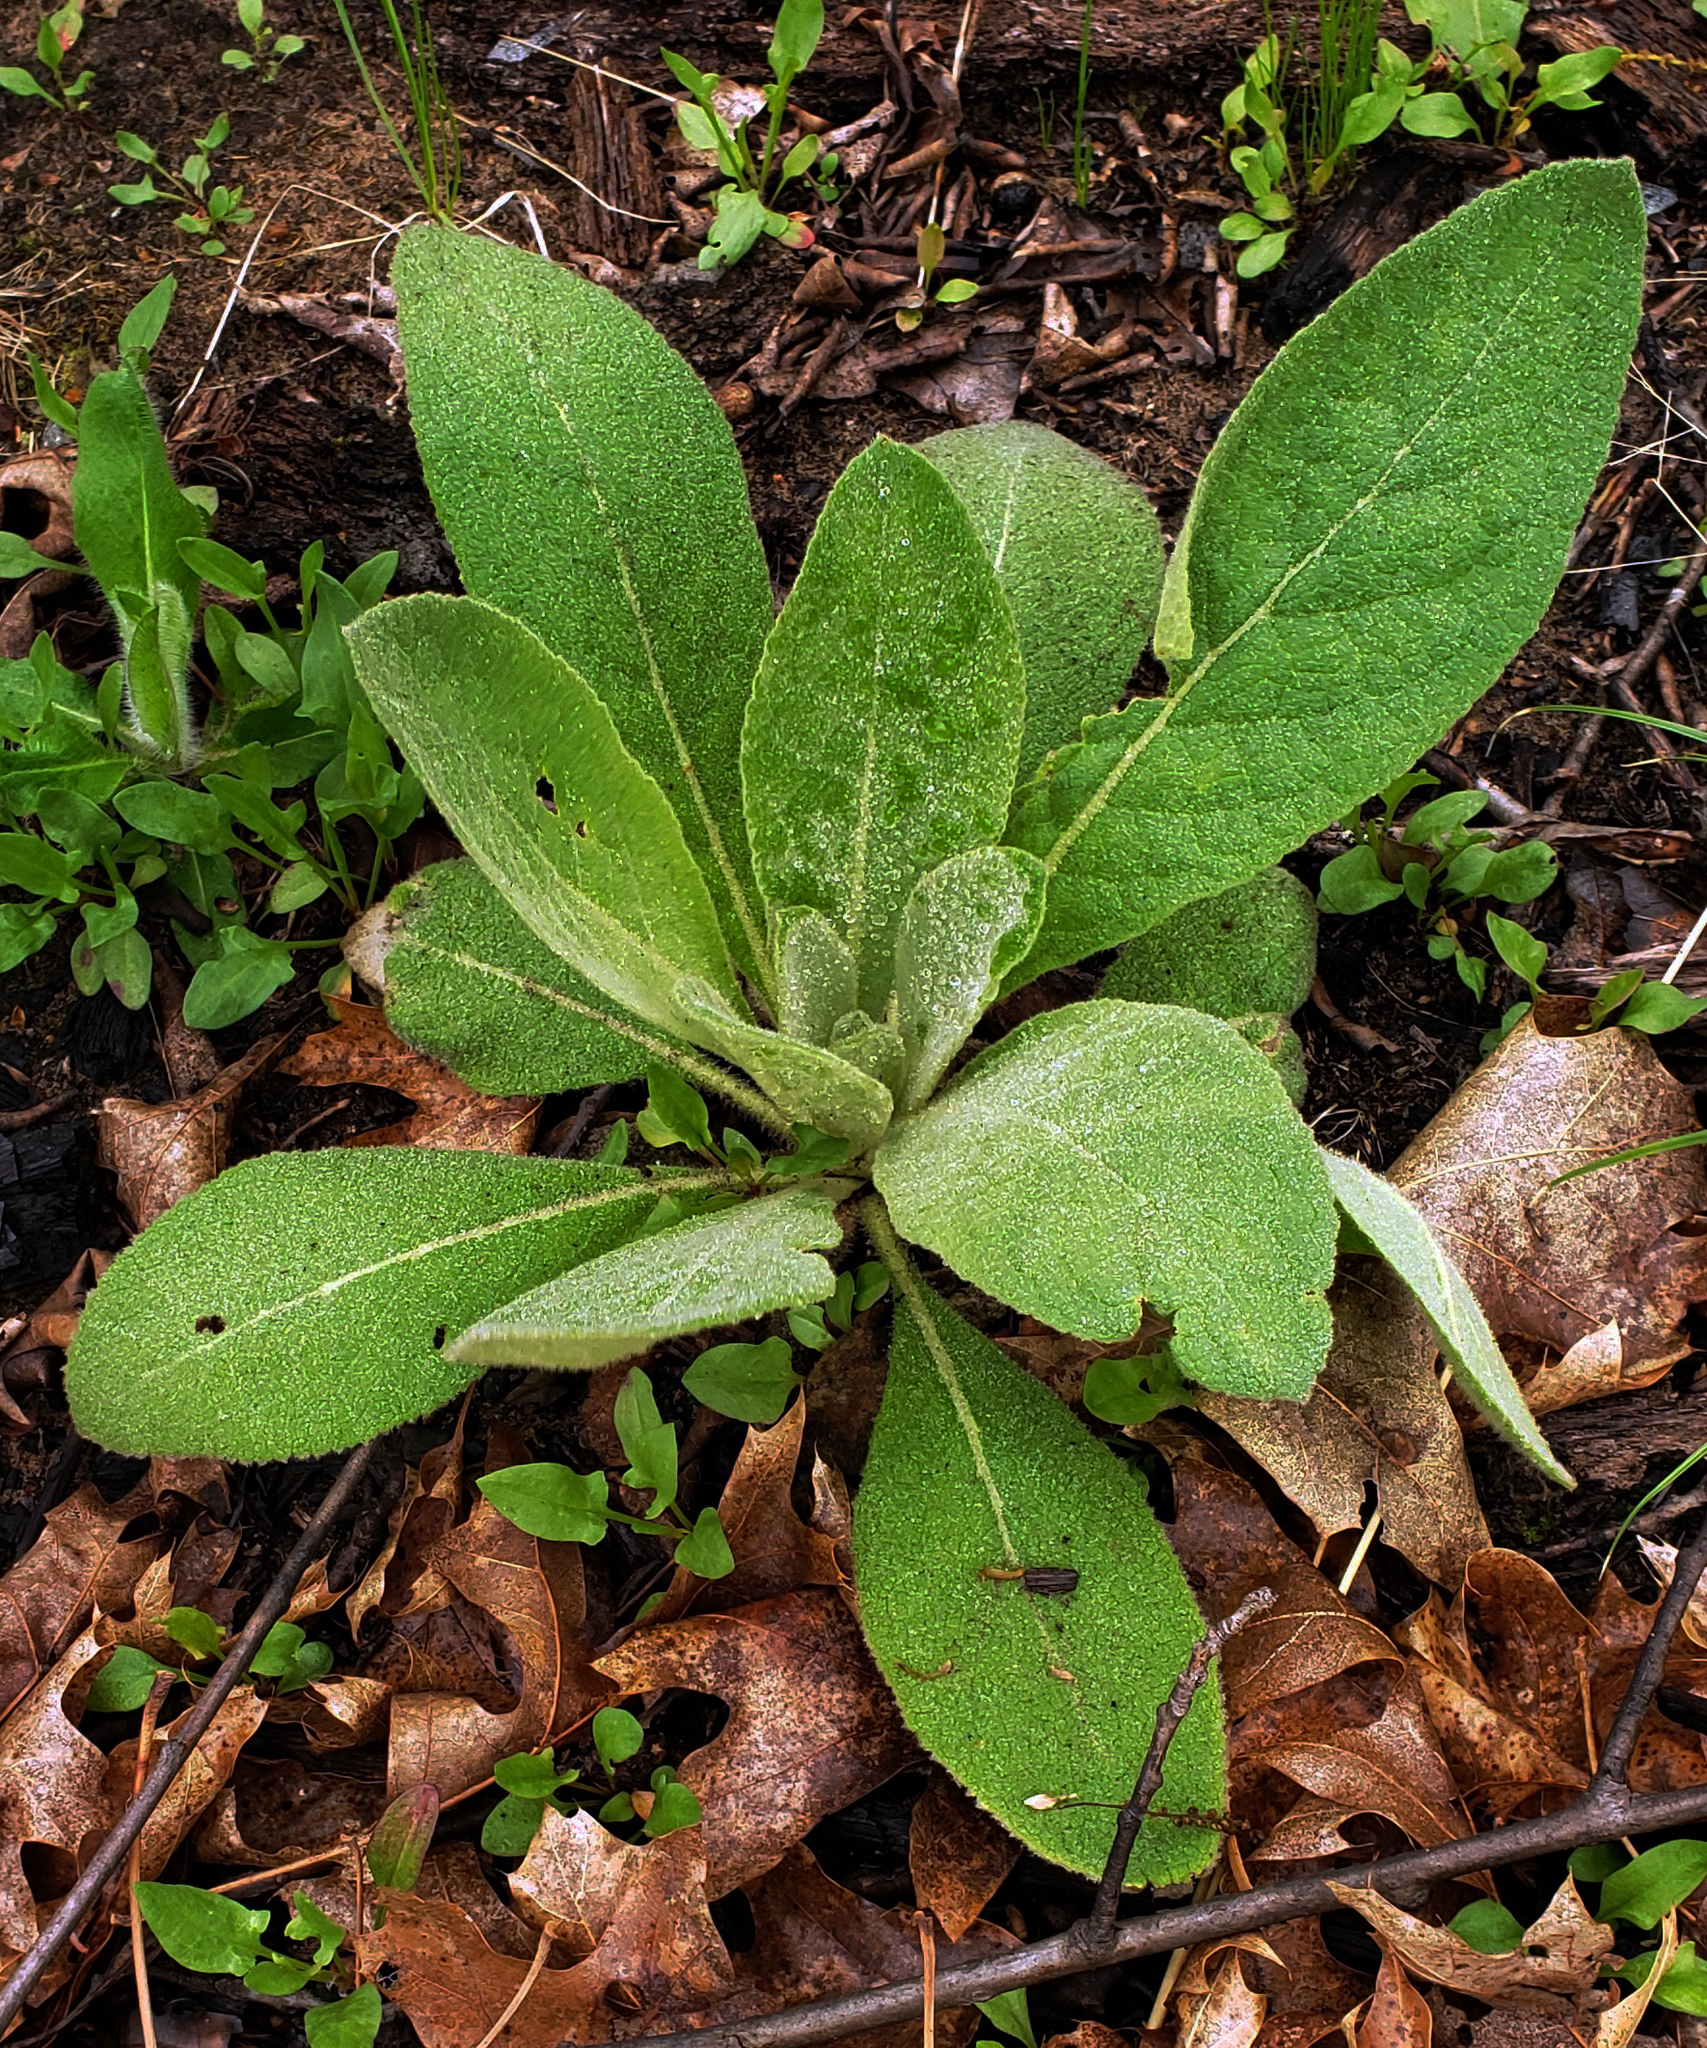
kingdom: Plantae
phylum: Tracheophyta
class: Magnoliopsida
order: Lamiales
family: Scrophulariaceae
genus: Verbascum
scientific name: Verbascum thapsus
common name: Common mullein
